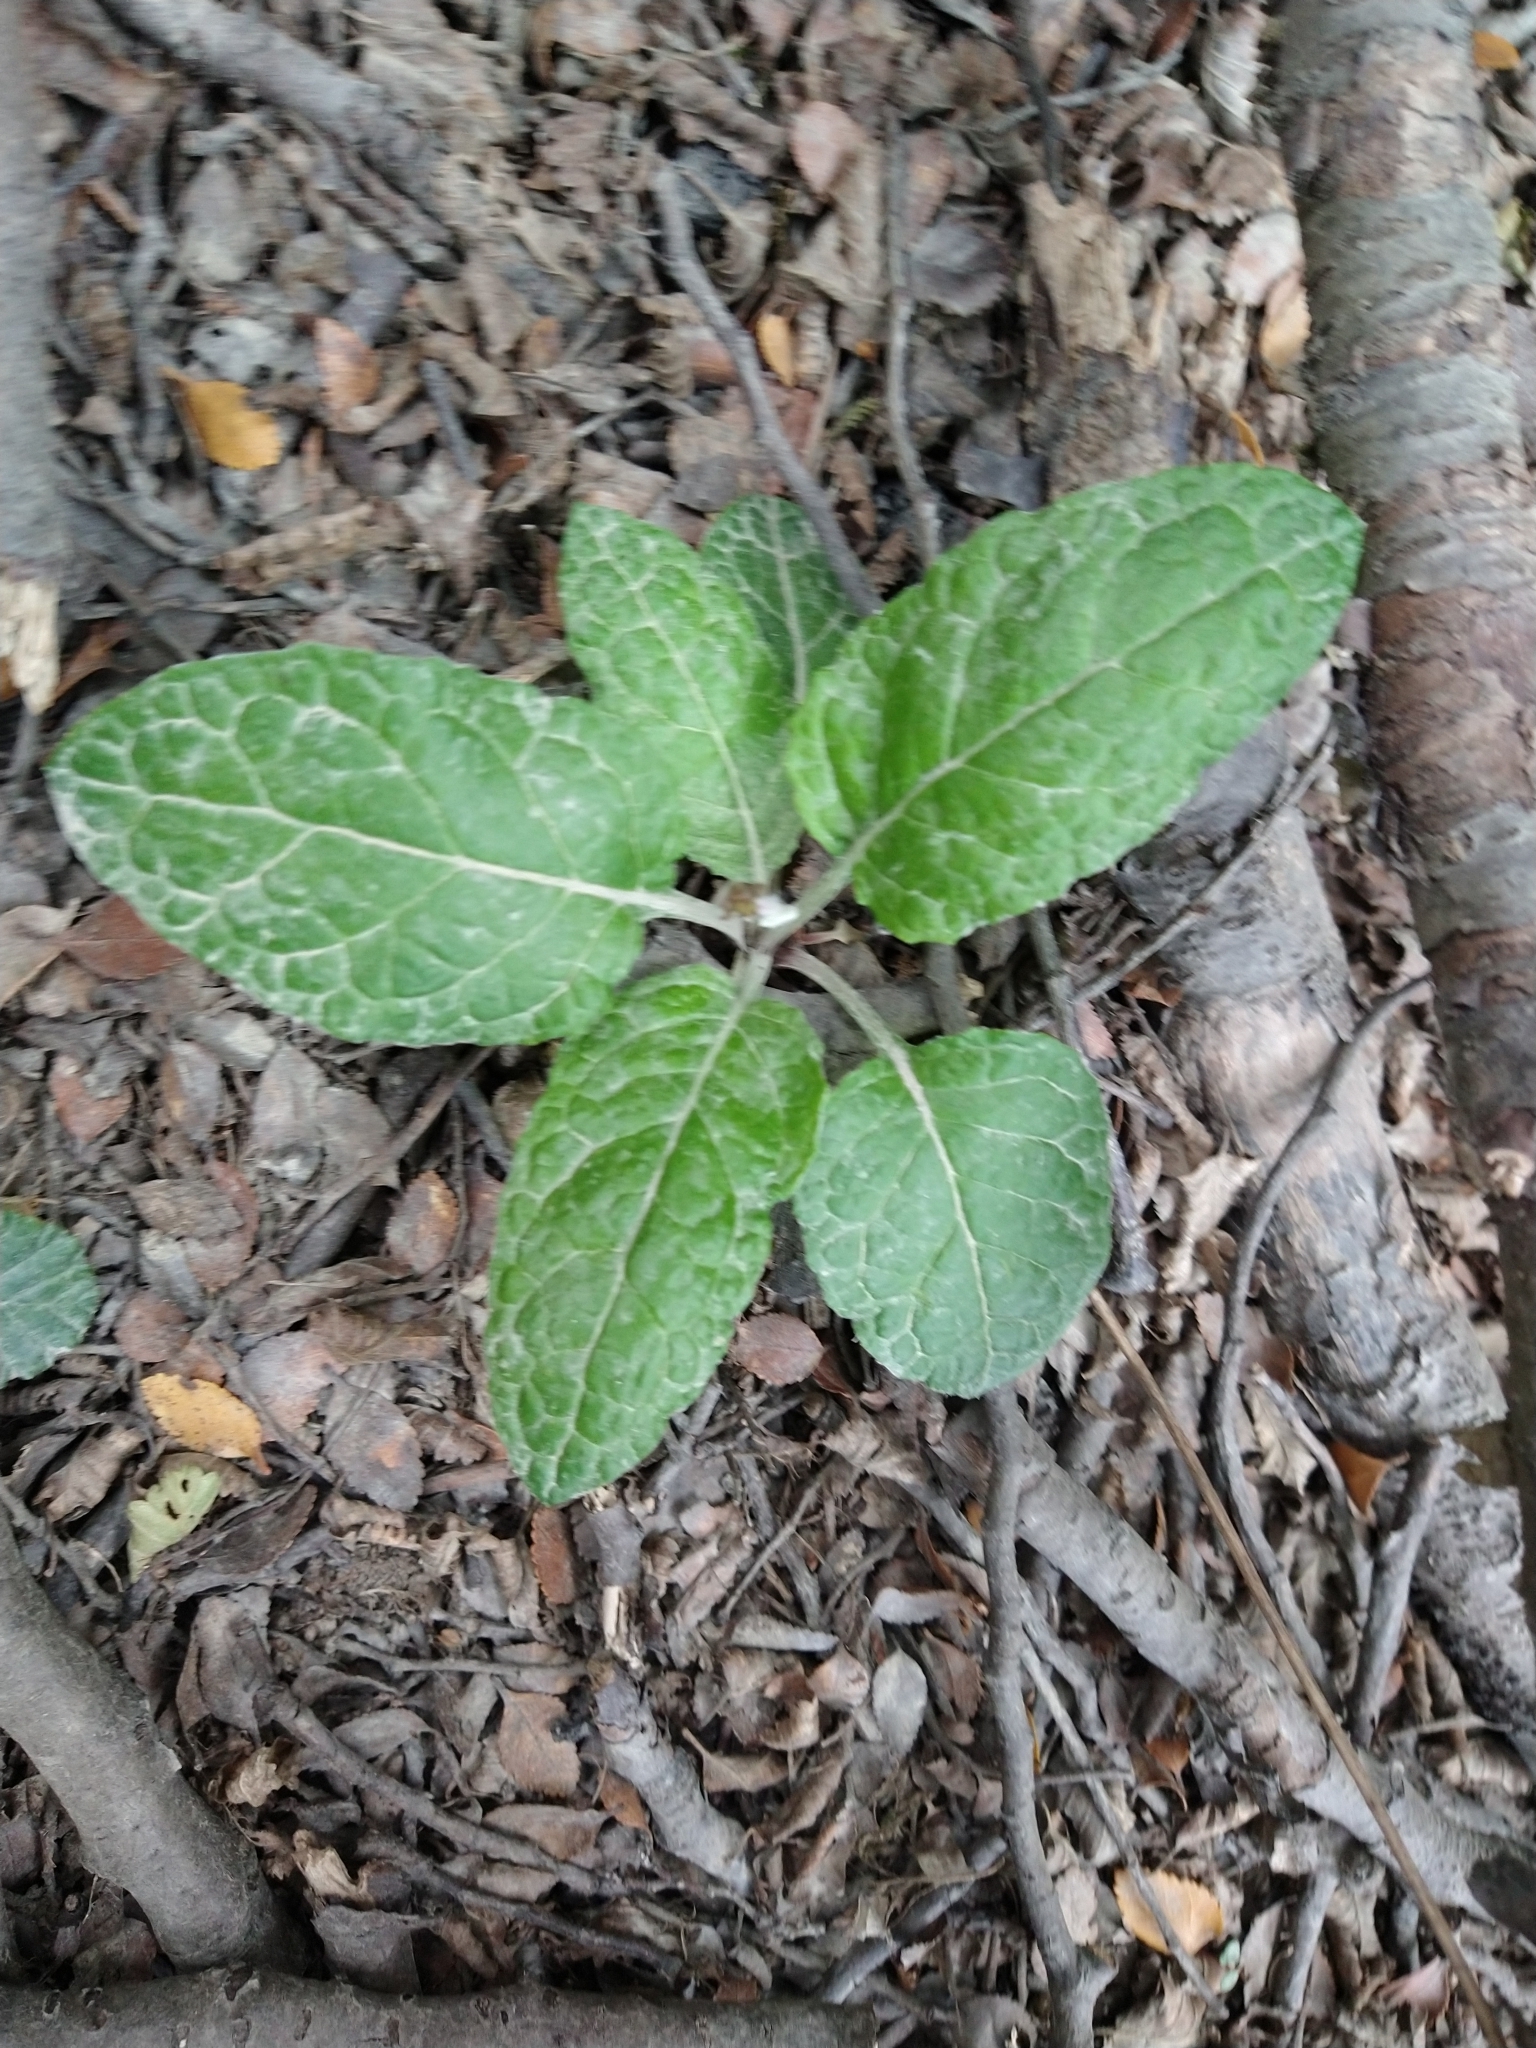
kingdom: Plantae
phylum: Tracheophyta
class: Magnoliopsida
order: Asterales
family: Asteraceae
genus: Adenocaulon
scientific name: Adenocaulon chilense
